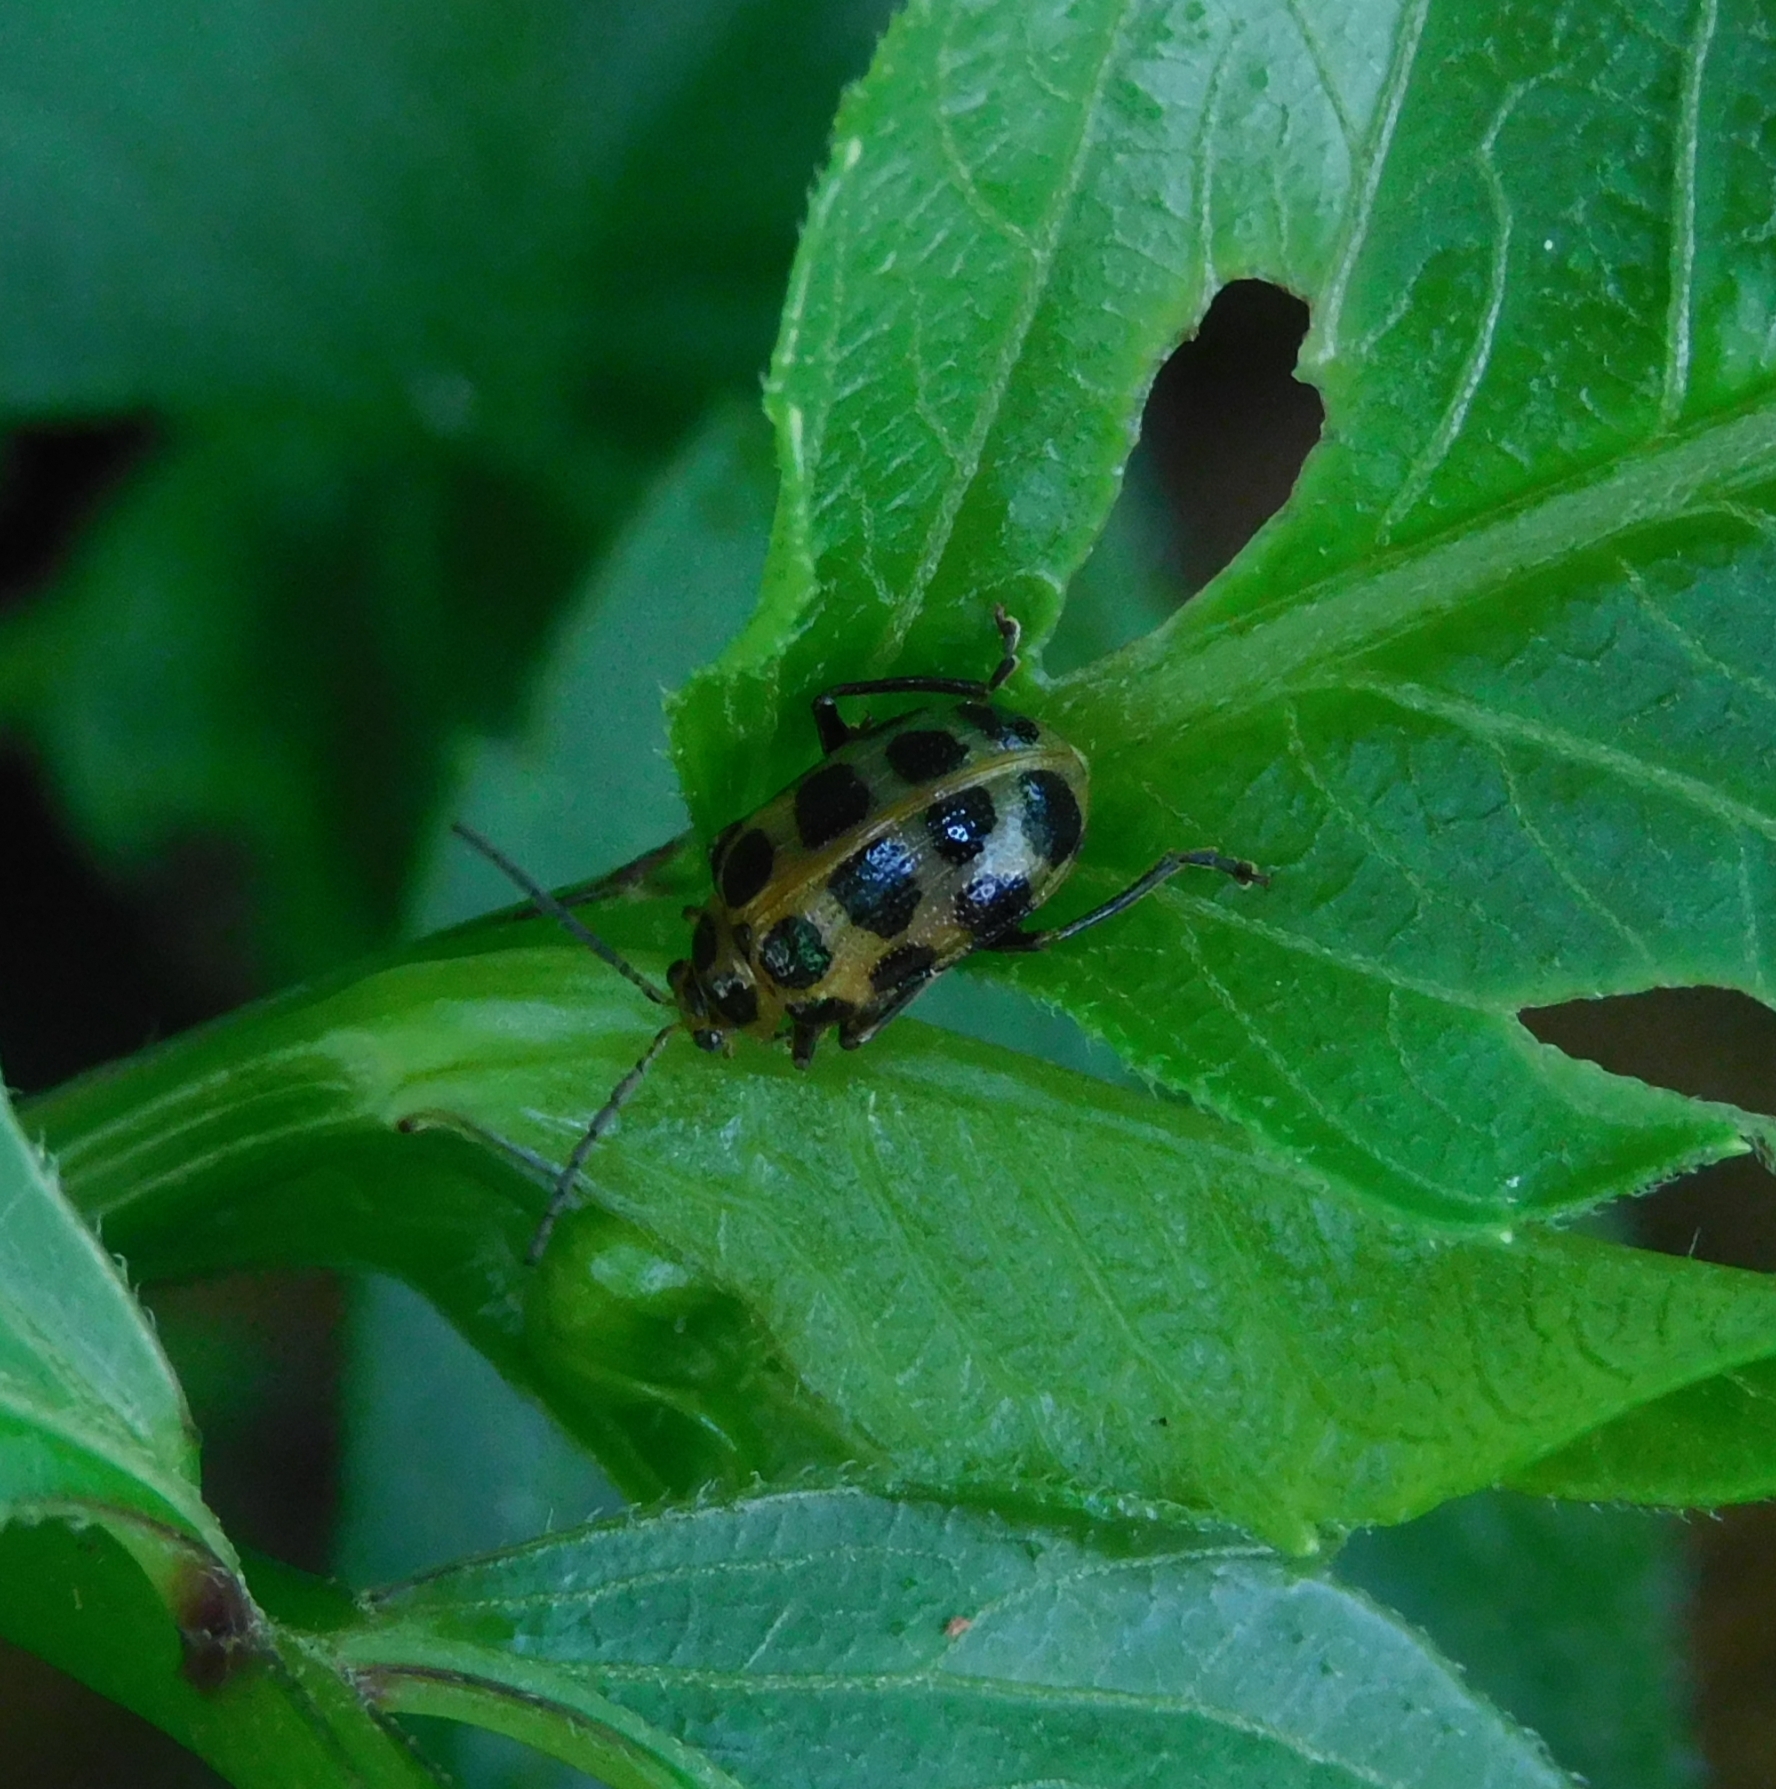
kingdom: Animalia
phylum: Arthropoda
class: Insecta
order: Coleoptera
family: Chrysomelidae
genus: Sphenoraia
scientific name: Sphenoraia
